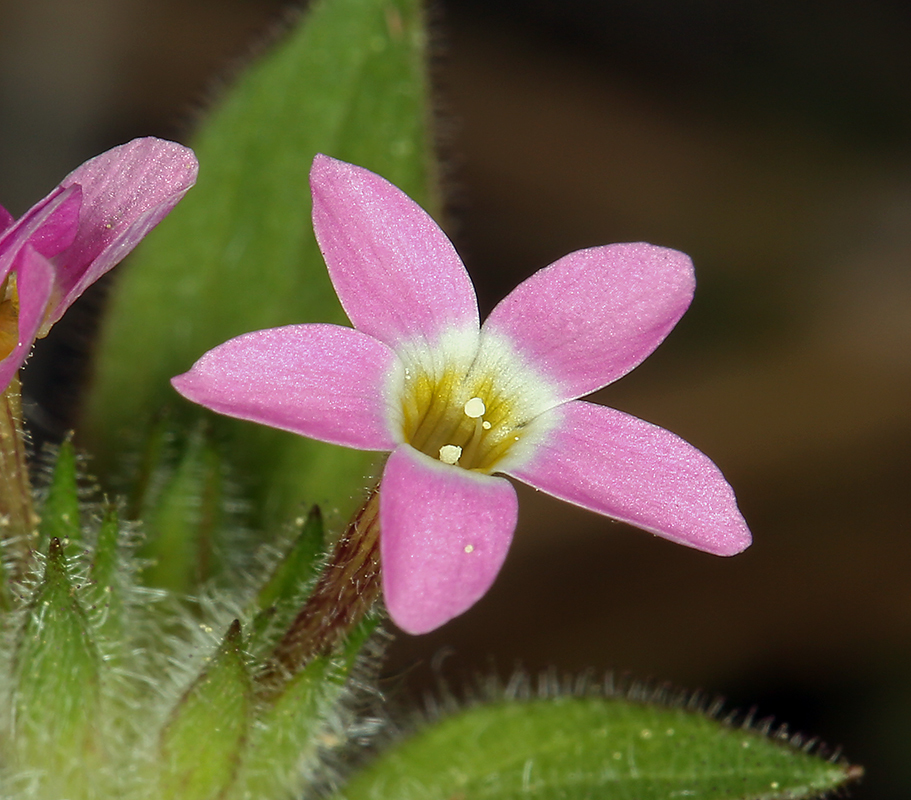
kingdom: Plantae
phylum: Tracheophyta
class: Magnoliopsida
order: Ericales
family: Polemoniaceae
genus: Collomia
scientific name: Collomia heterophylla
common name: Variable-leaved collomia
